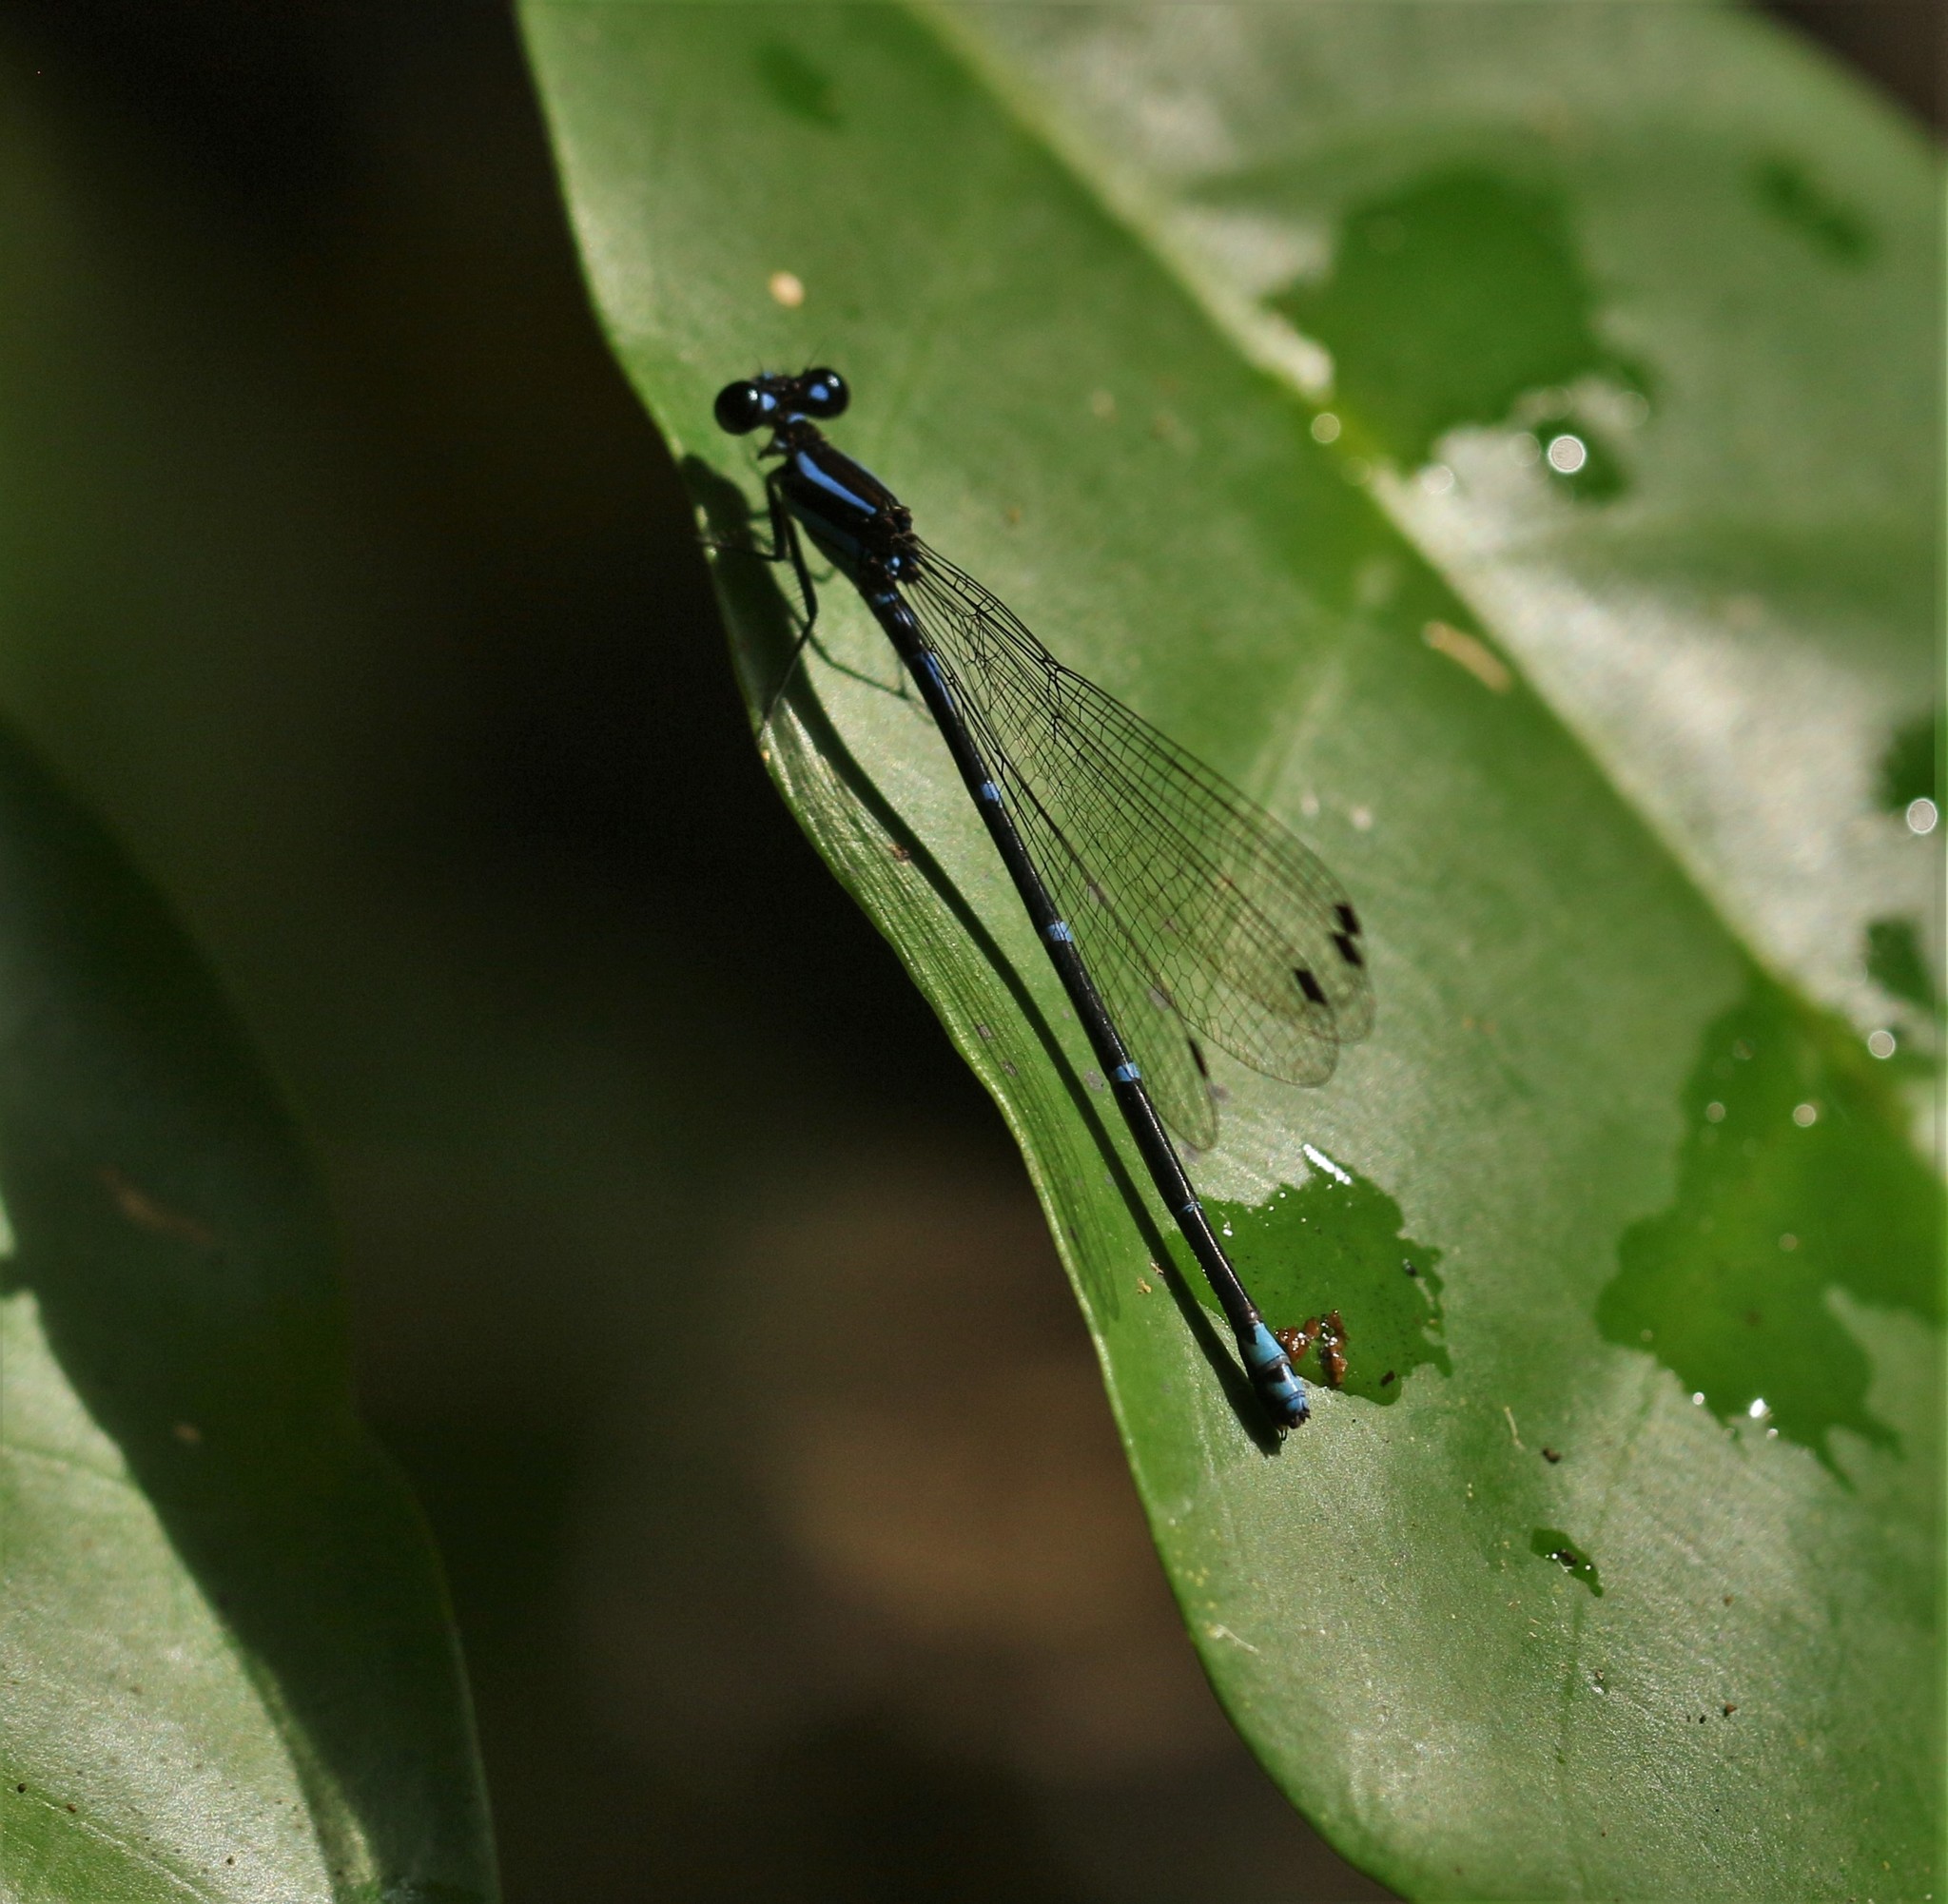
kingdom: Animalia
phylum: Arthropoda
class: Insecta
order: Odonata
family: Coenagrionidae
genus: Argia
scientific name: Argia oculata
